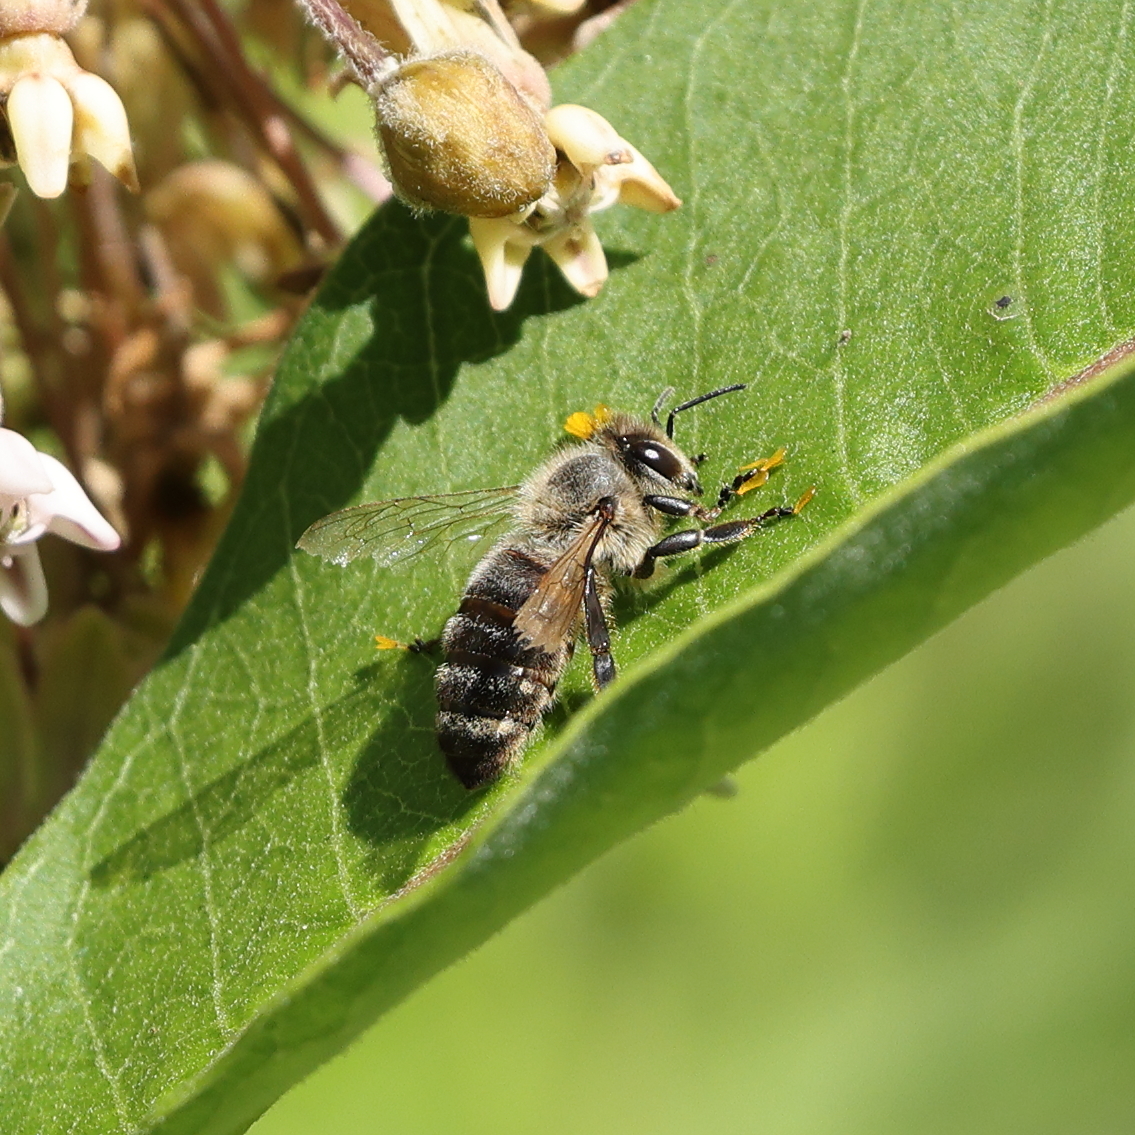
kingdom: Animalia
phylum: Arthropoda
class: Insecta
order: Hymenoptera
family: Apidae
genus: Apis
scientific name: Apis mellifera
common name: Honey bee
